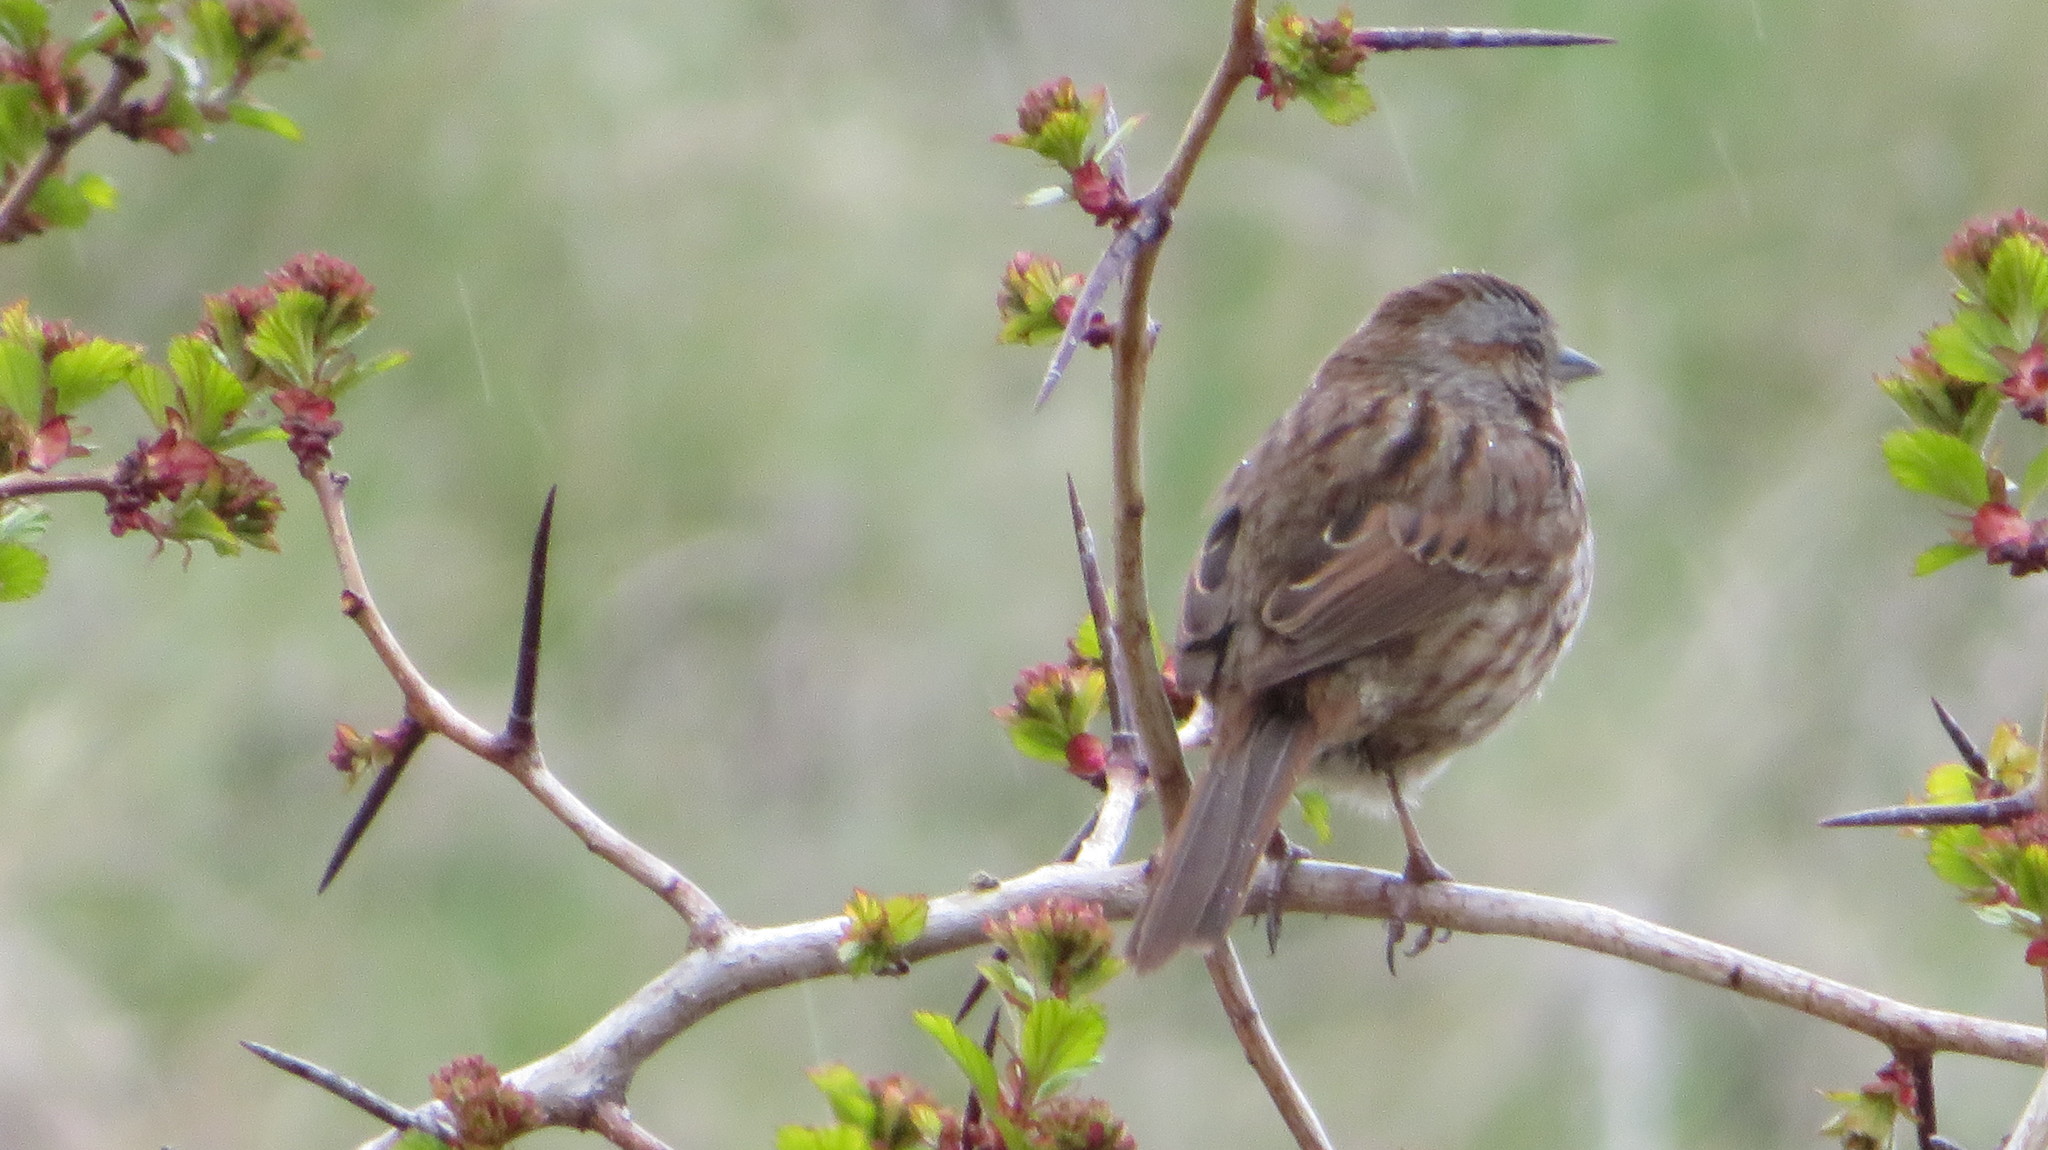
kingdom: Animalia
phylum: Chordata
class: Aves
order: Passeriformes
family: Passerellidae
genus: Melospiza
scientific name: Melospiza melodia
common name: Song sparrow
